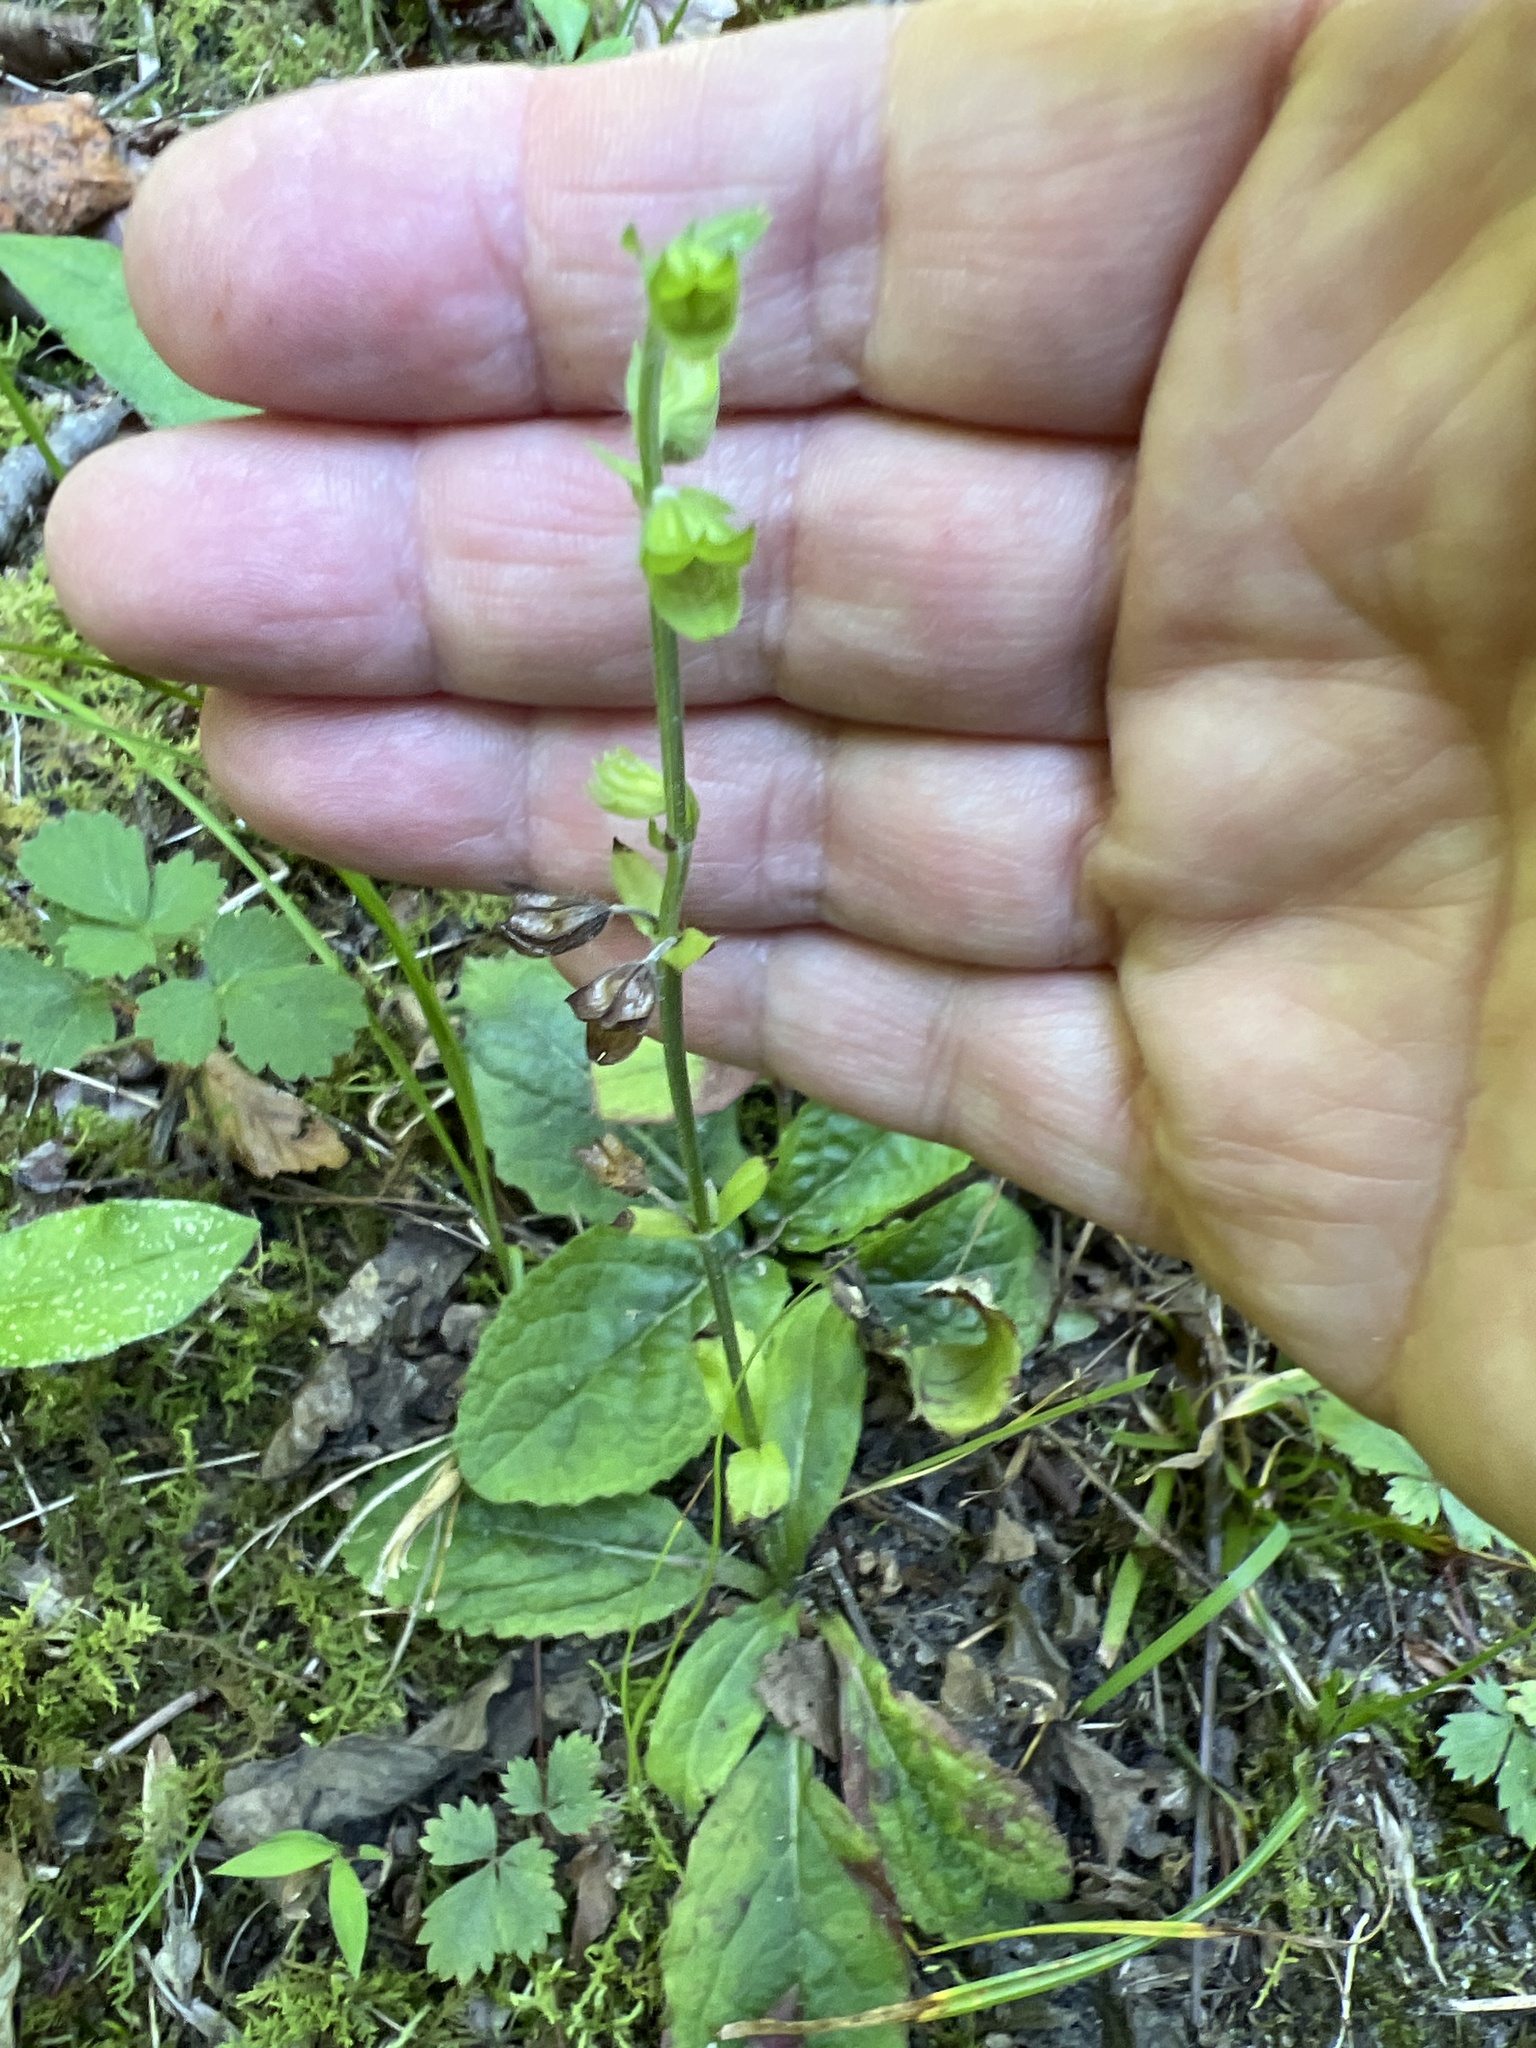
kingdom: Plantae
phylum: Tracheophyta
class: Magnoliopsida
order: Lamiales
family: Lamiaceae
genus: Salvia
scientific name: Salvia lyrata
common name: Cancerweed
